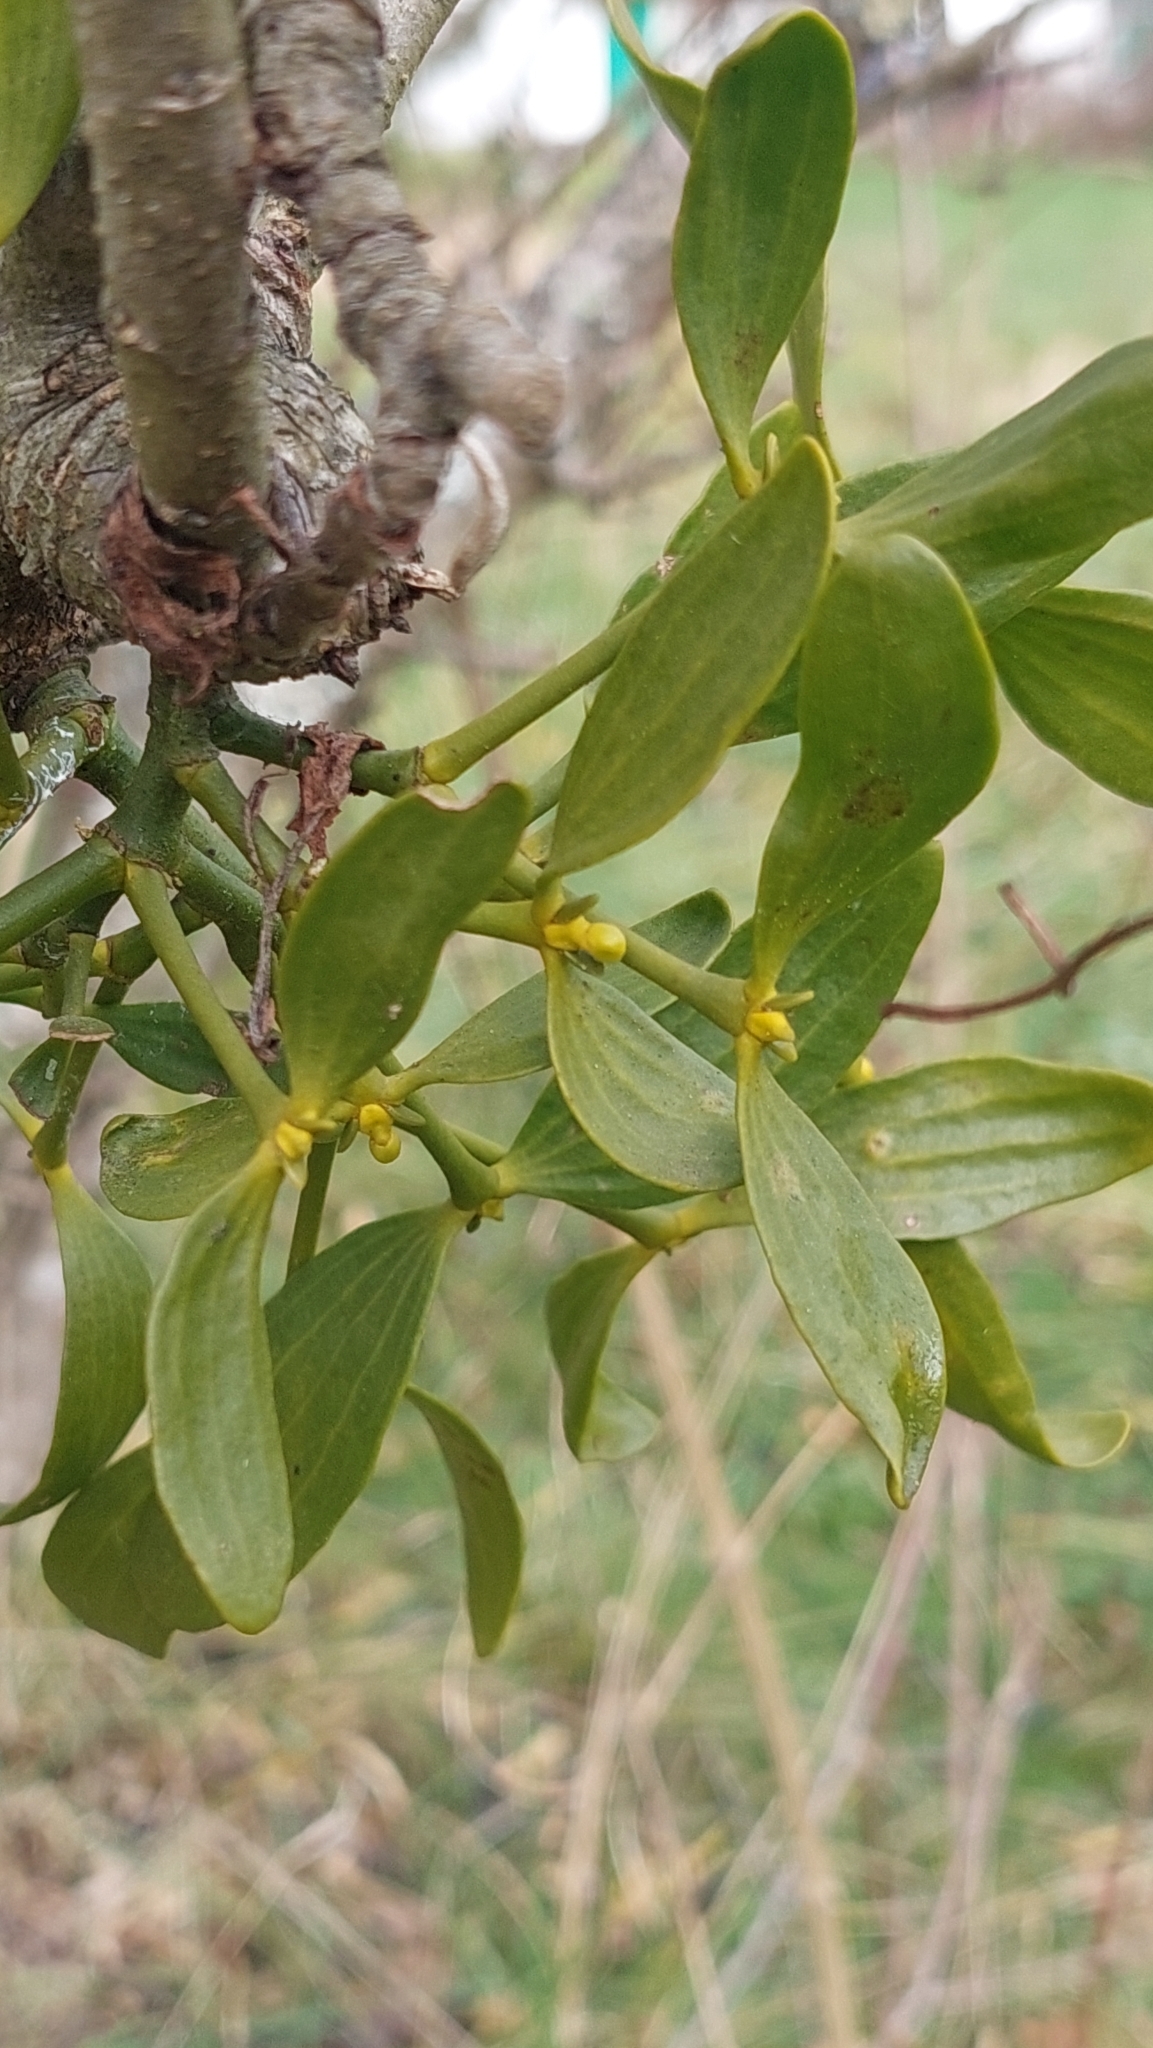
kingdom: Plantae
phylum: Tracheophyta
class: Magnoliopsida
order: Santalales
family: Viscaceae
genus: Viscum
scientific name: Viscum album
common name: Mistletoe
